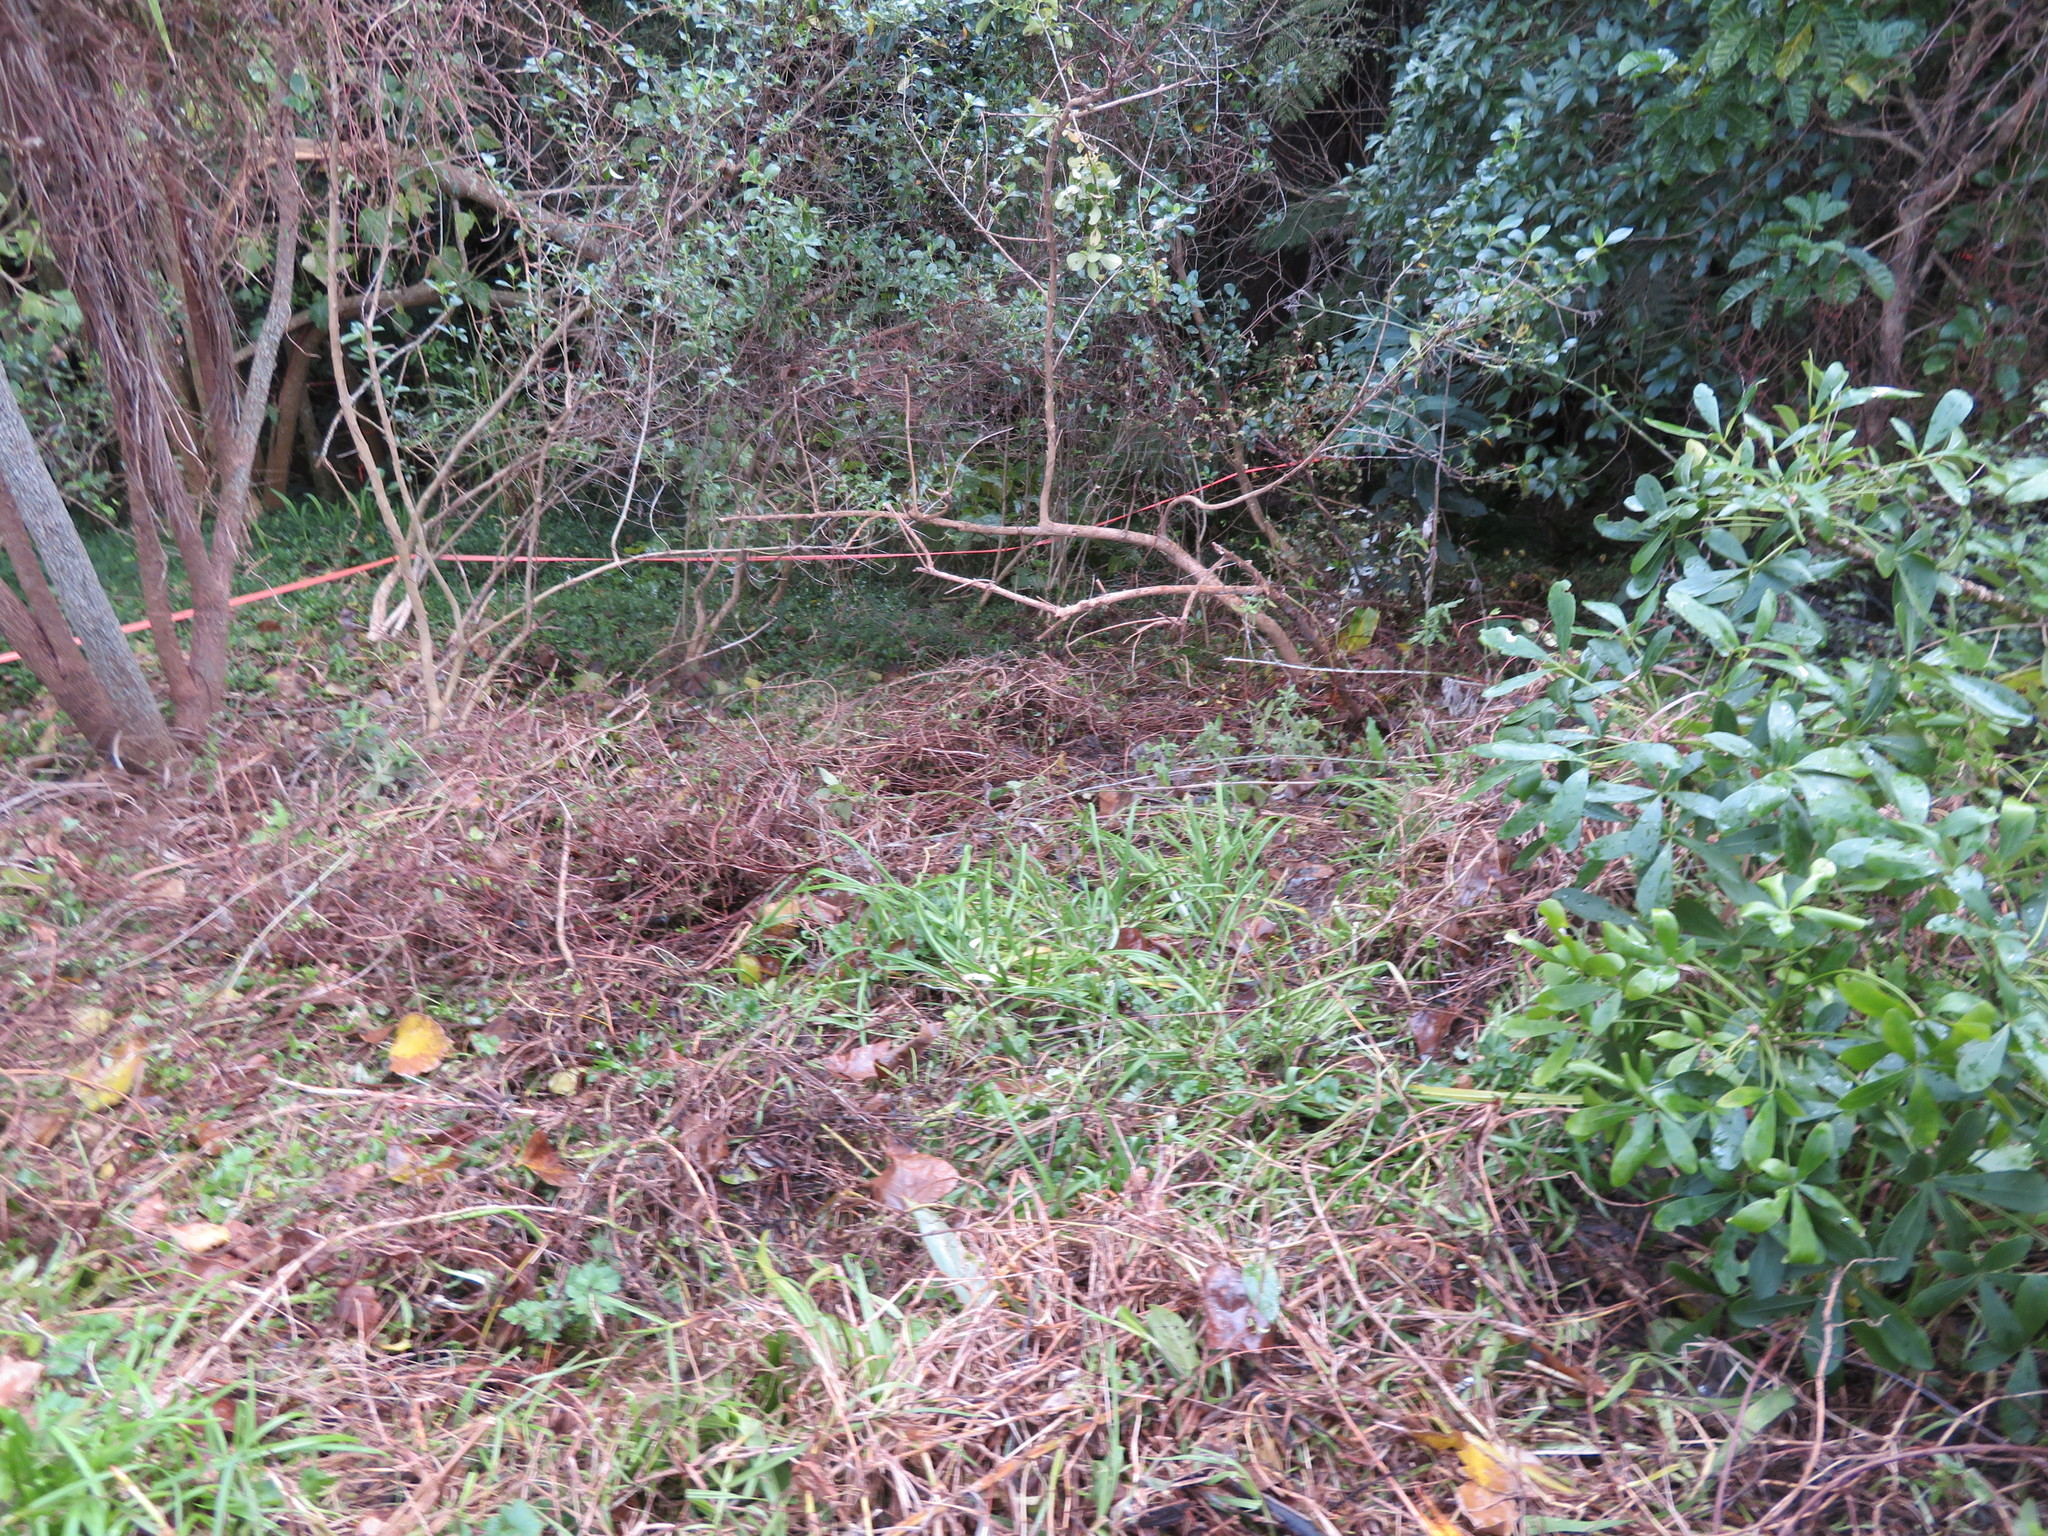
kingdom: Plantae
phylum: Tracheophyta
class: Magnoliopsida
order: Lamiales
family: Lamiaceae
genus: Vitex
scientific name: Vitex lucens
